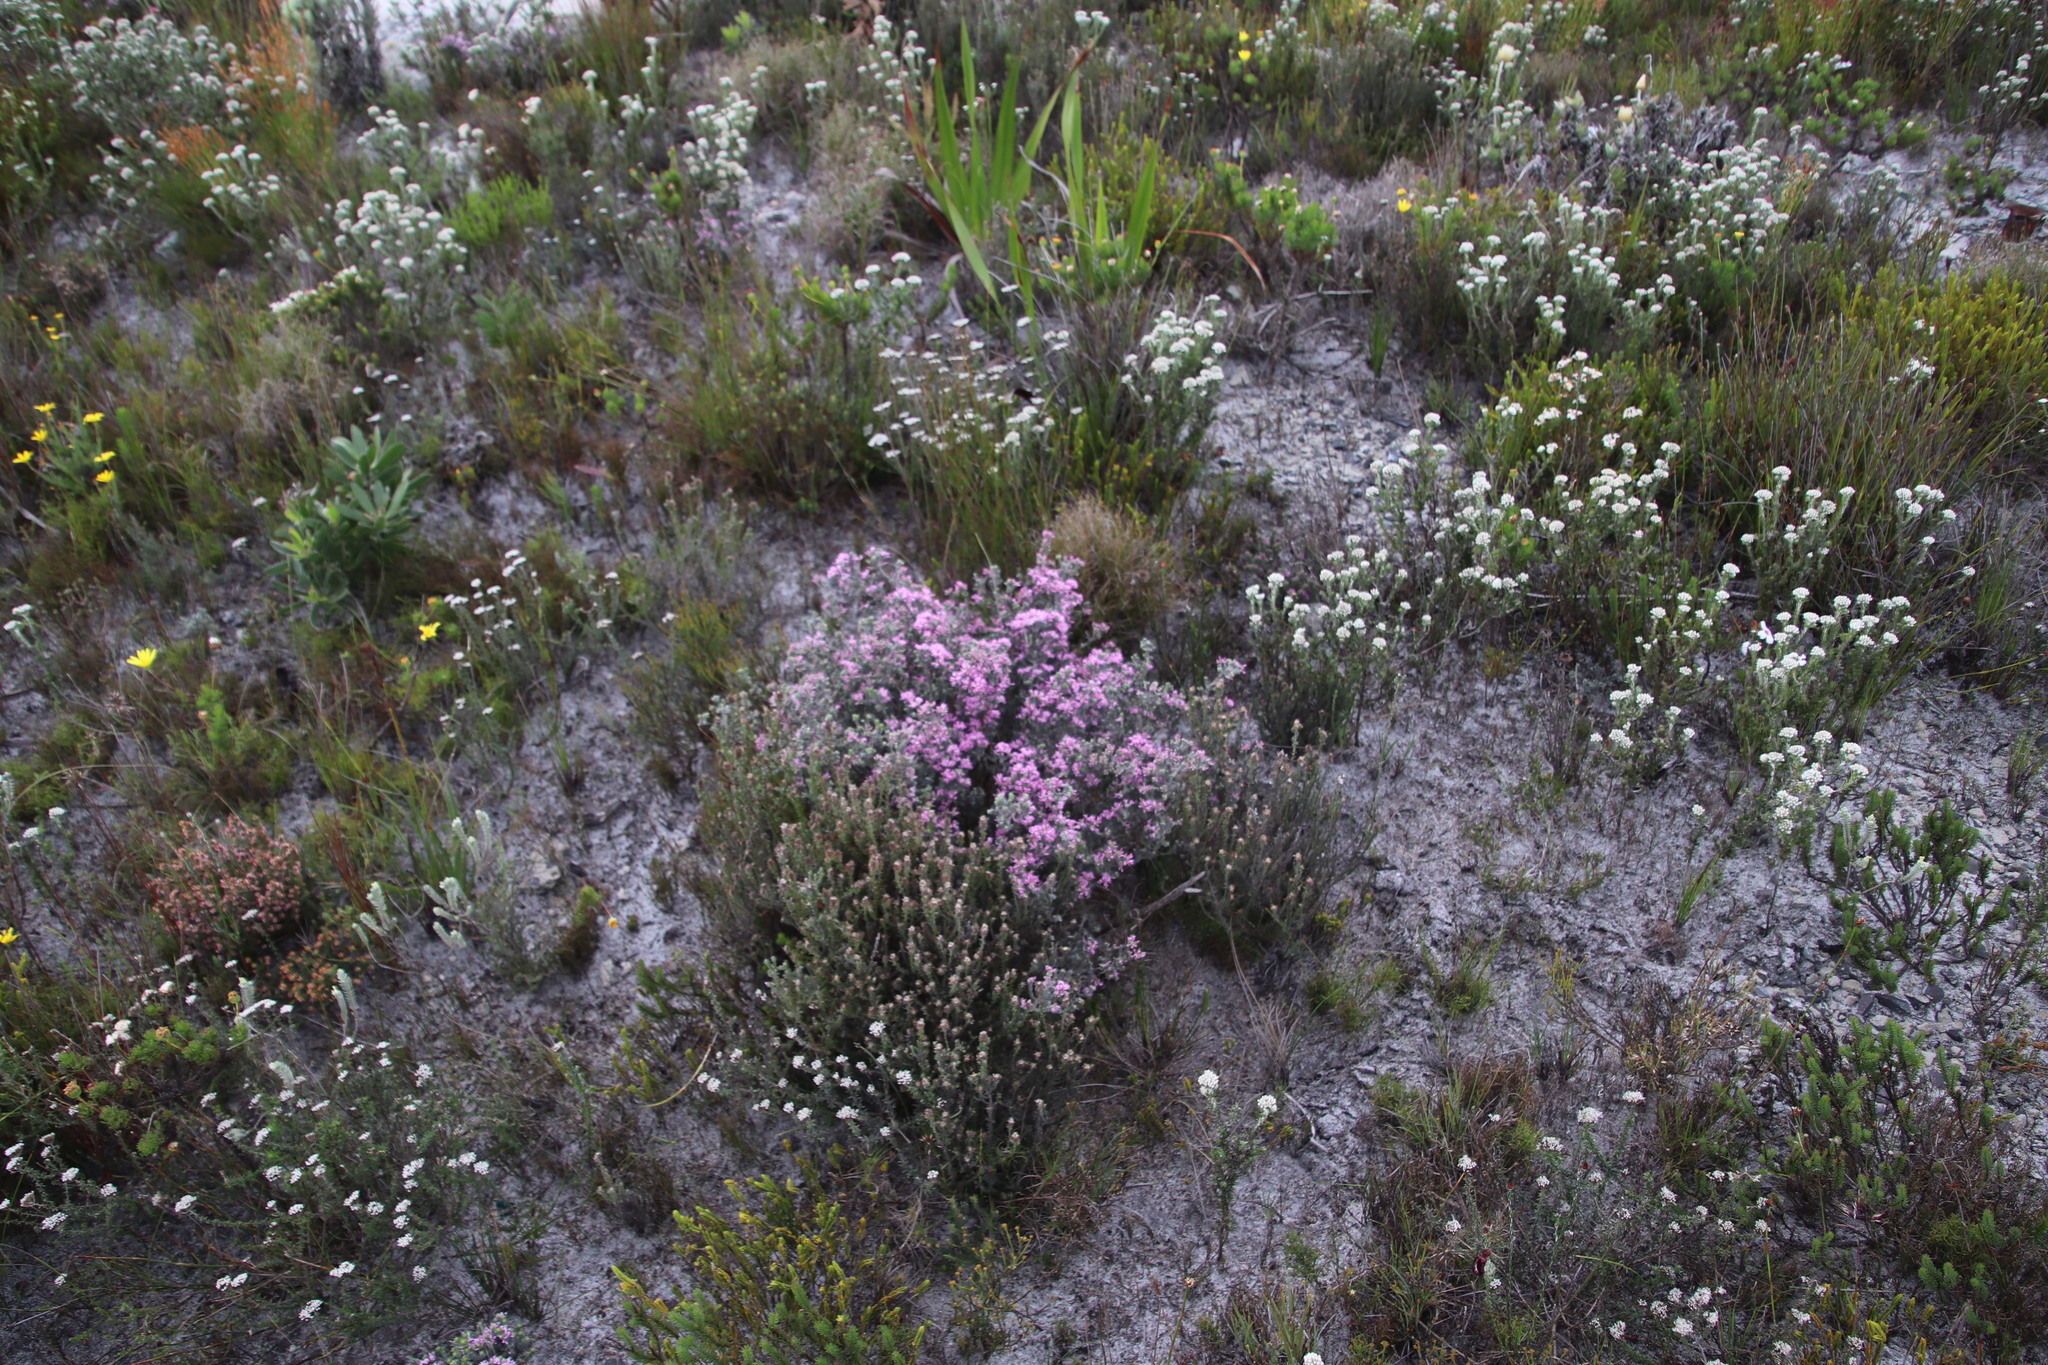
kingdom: Plantae
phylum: Tracheophyta
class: Magnoliopsida
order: Fabales
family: Fabaceae
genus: Amphithalea
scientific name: Amphithalea ericifolia
